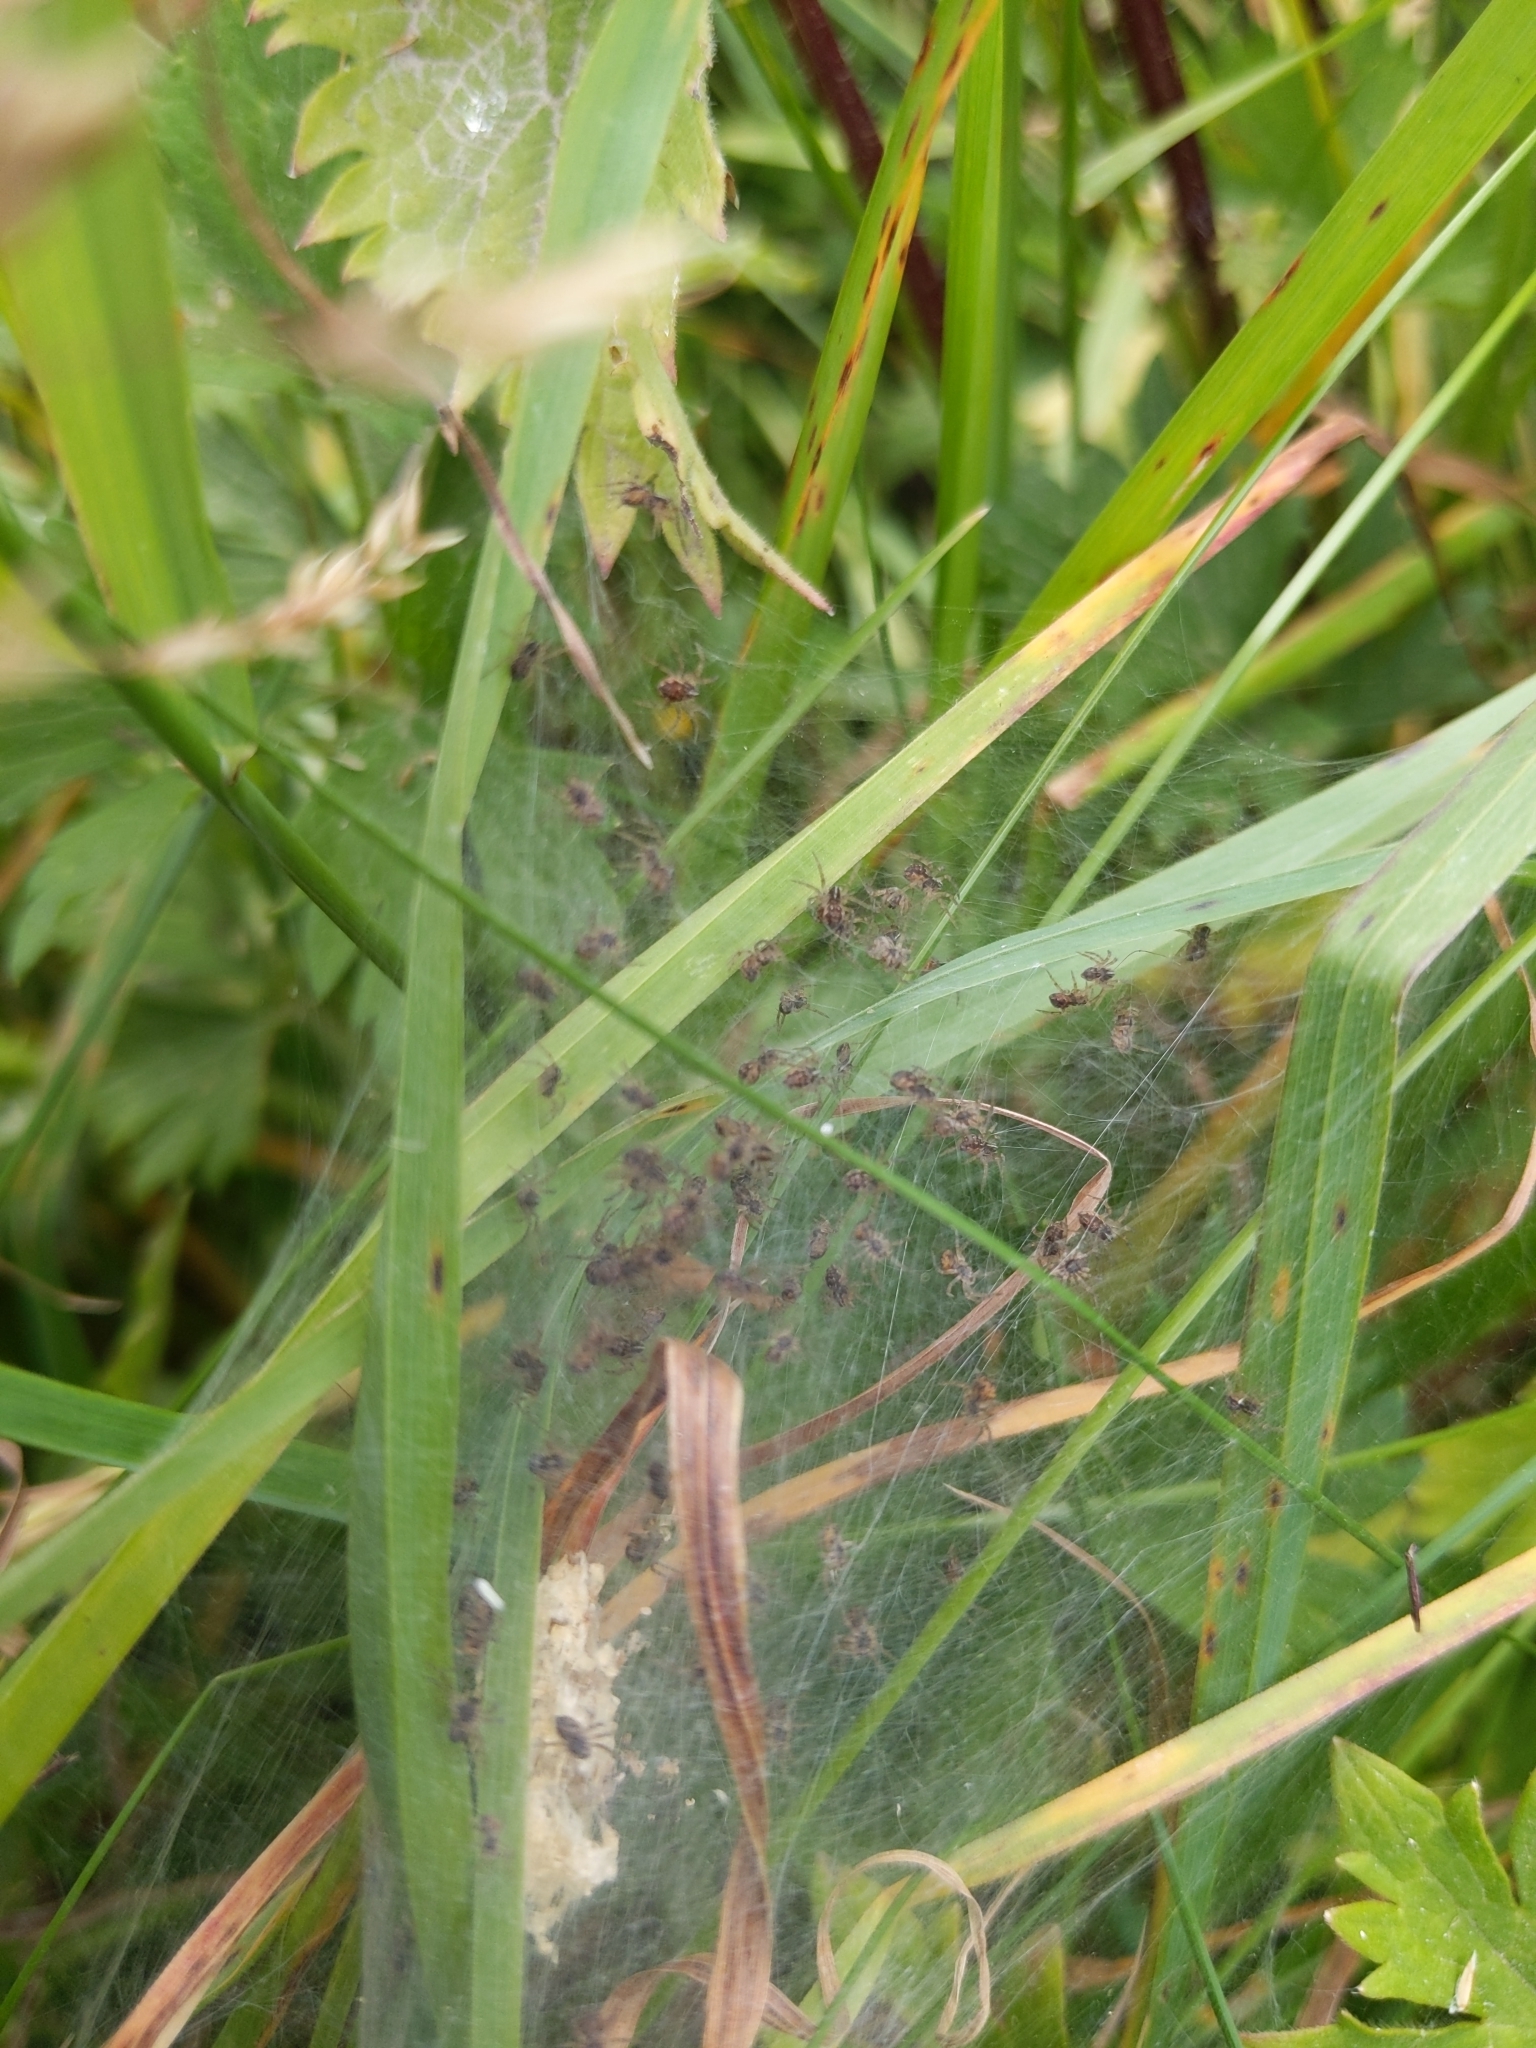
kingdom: Animalia
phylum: Arthropoda
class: Arachnida
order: Araneae
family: Pisauridae
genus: Pisaura
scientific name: Pisaura mirabilis
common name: Tent spider
